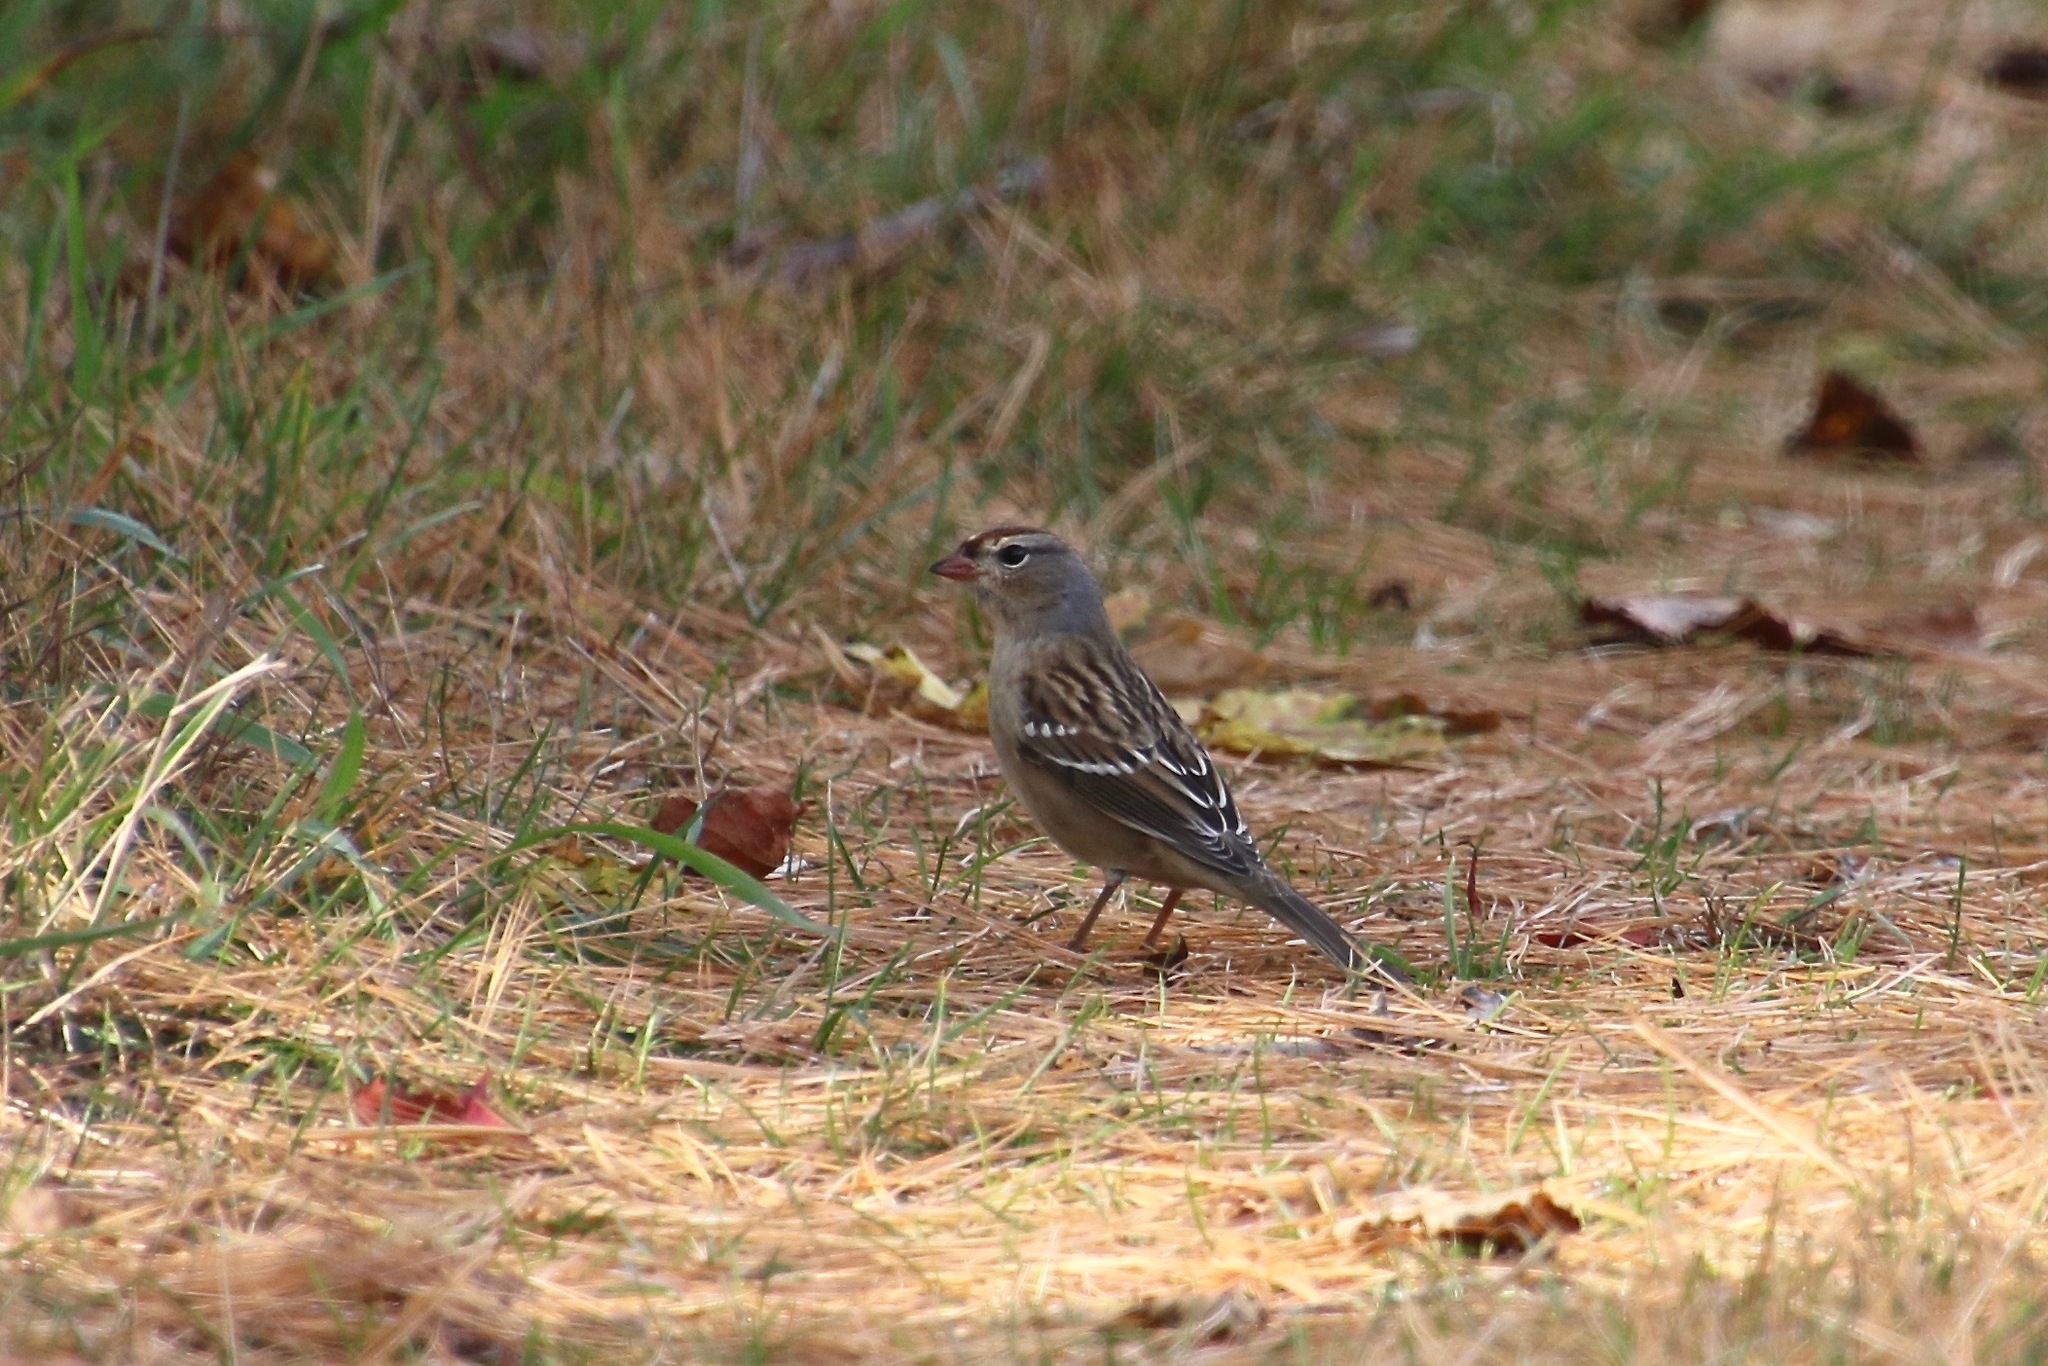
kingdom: Animalia
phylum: Chordata
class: Aves
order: Passeriformes
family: Passerellidae
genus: Zonotrichia
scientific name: Zonotrichia leucophrys
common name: White-crowned sparrow
